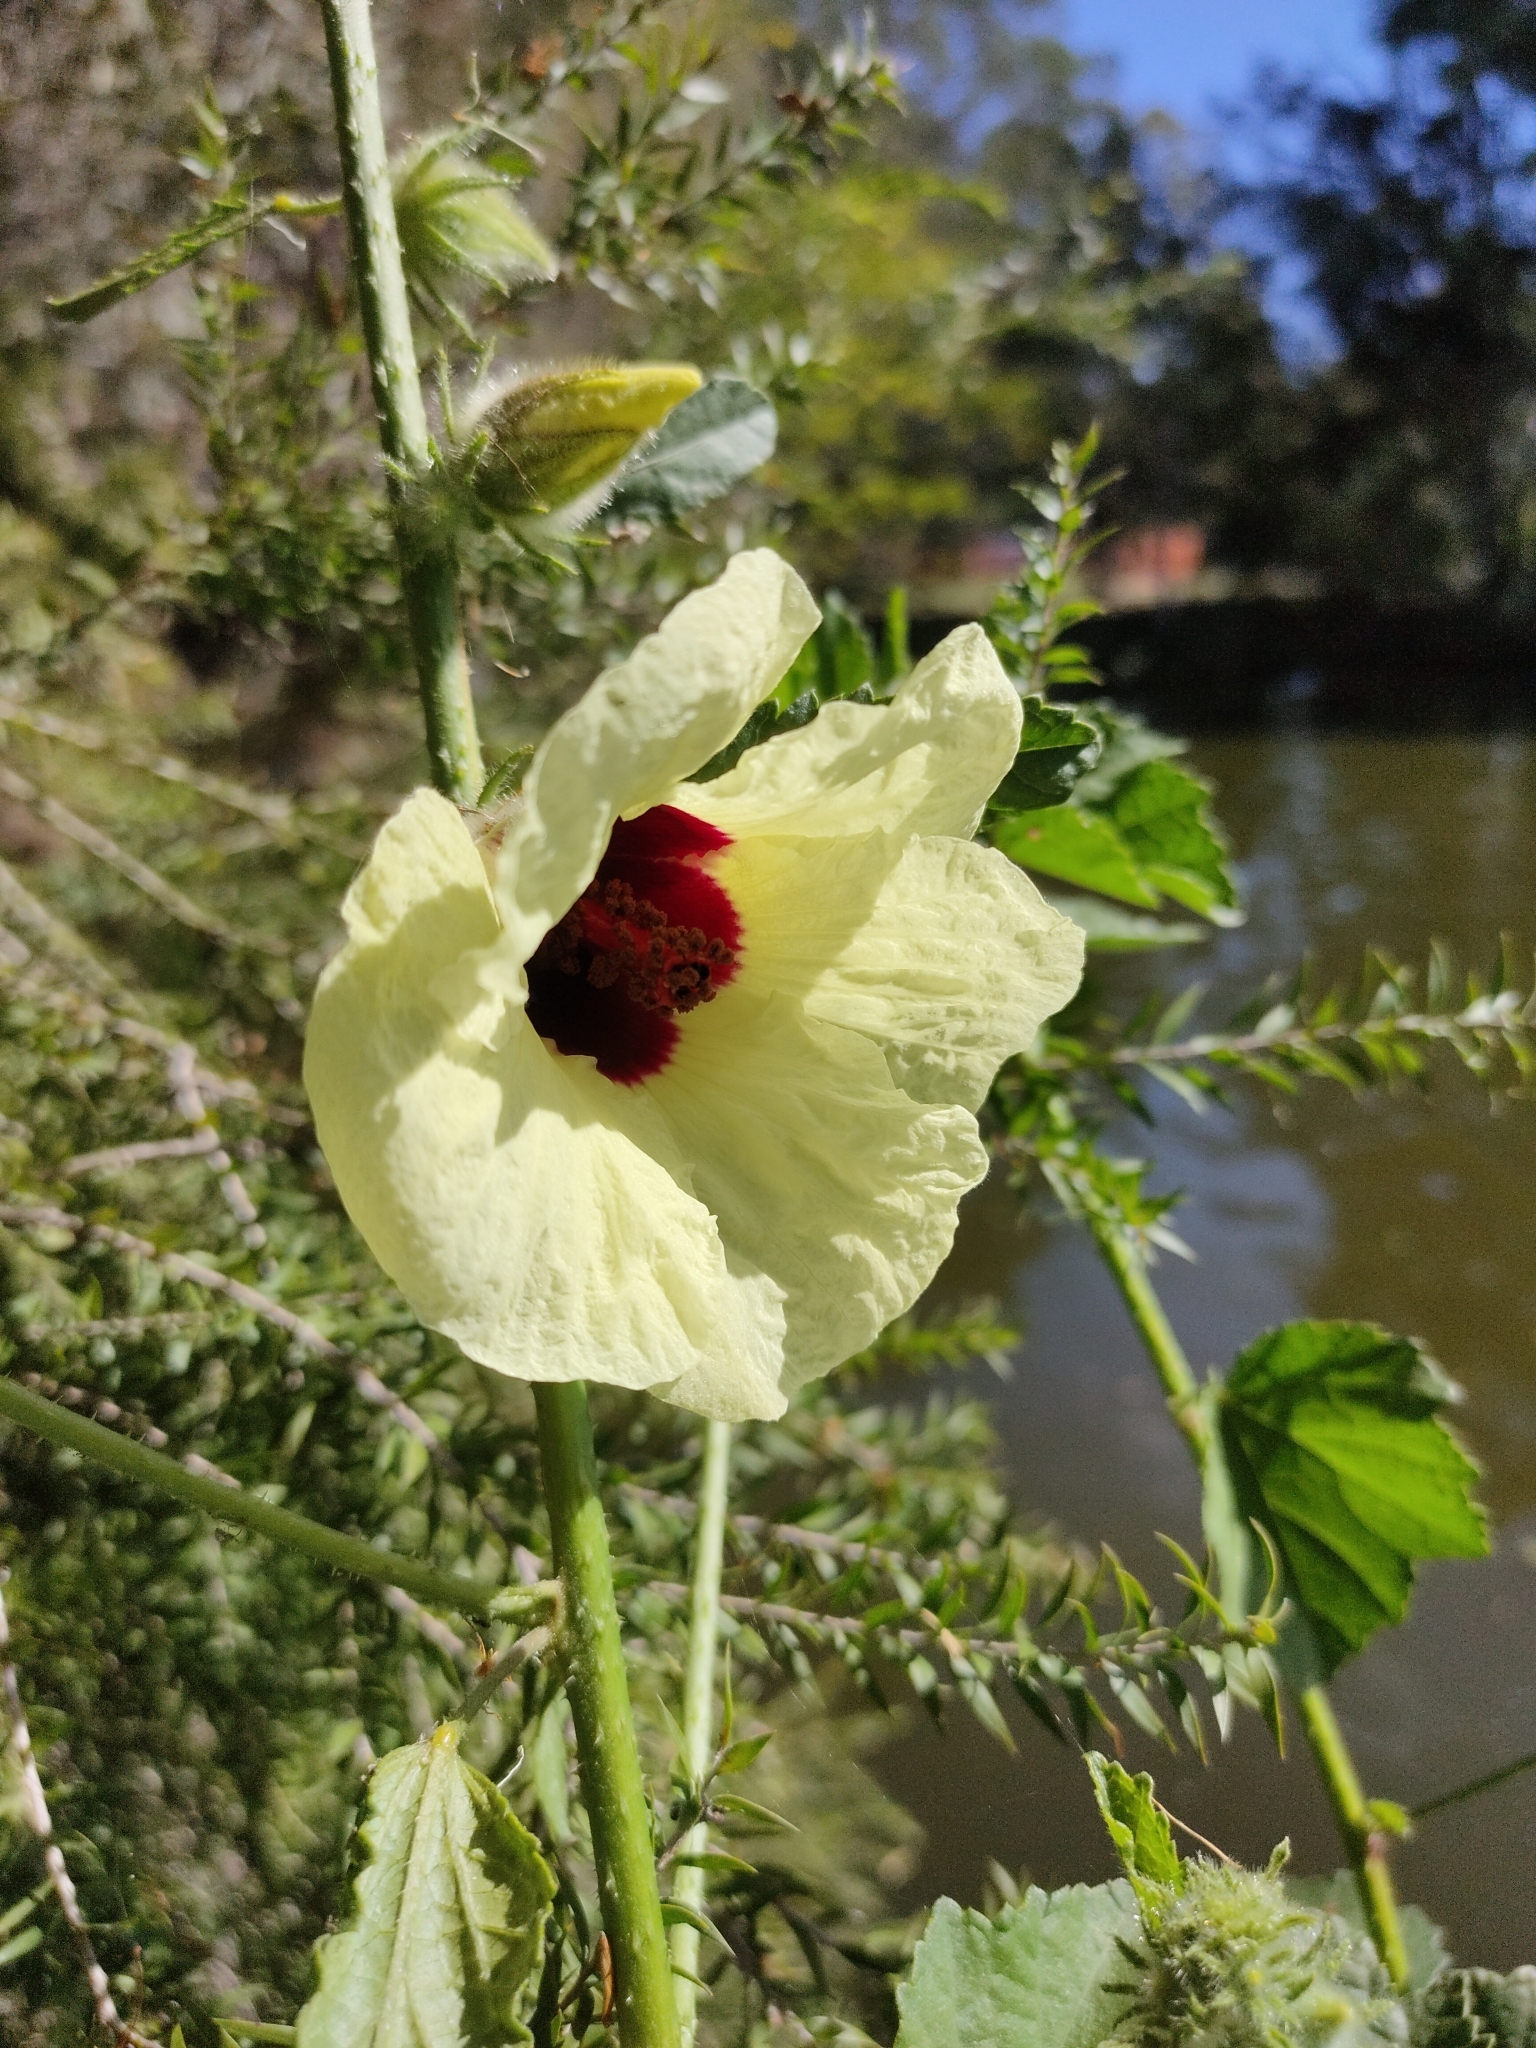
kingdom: Plantae
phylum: Tracheophyta
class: Magnoliopsida
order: Malvales
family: Malvaceae
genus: Hibiscus
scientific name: Hibiscus diversifolius
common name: Cape hibiscus
